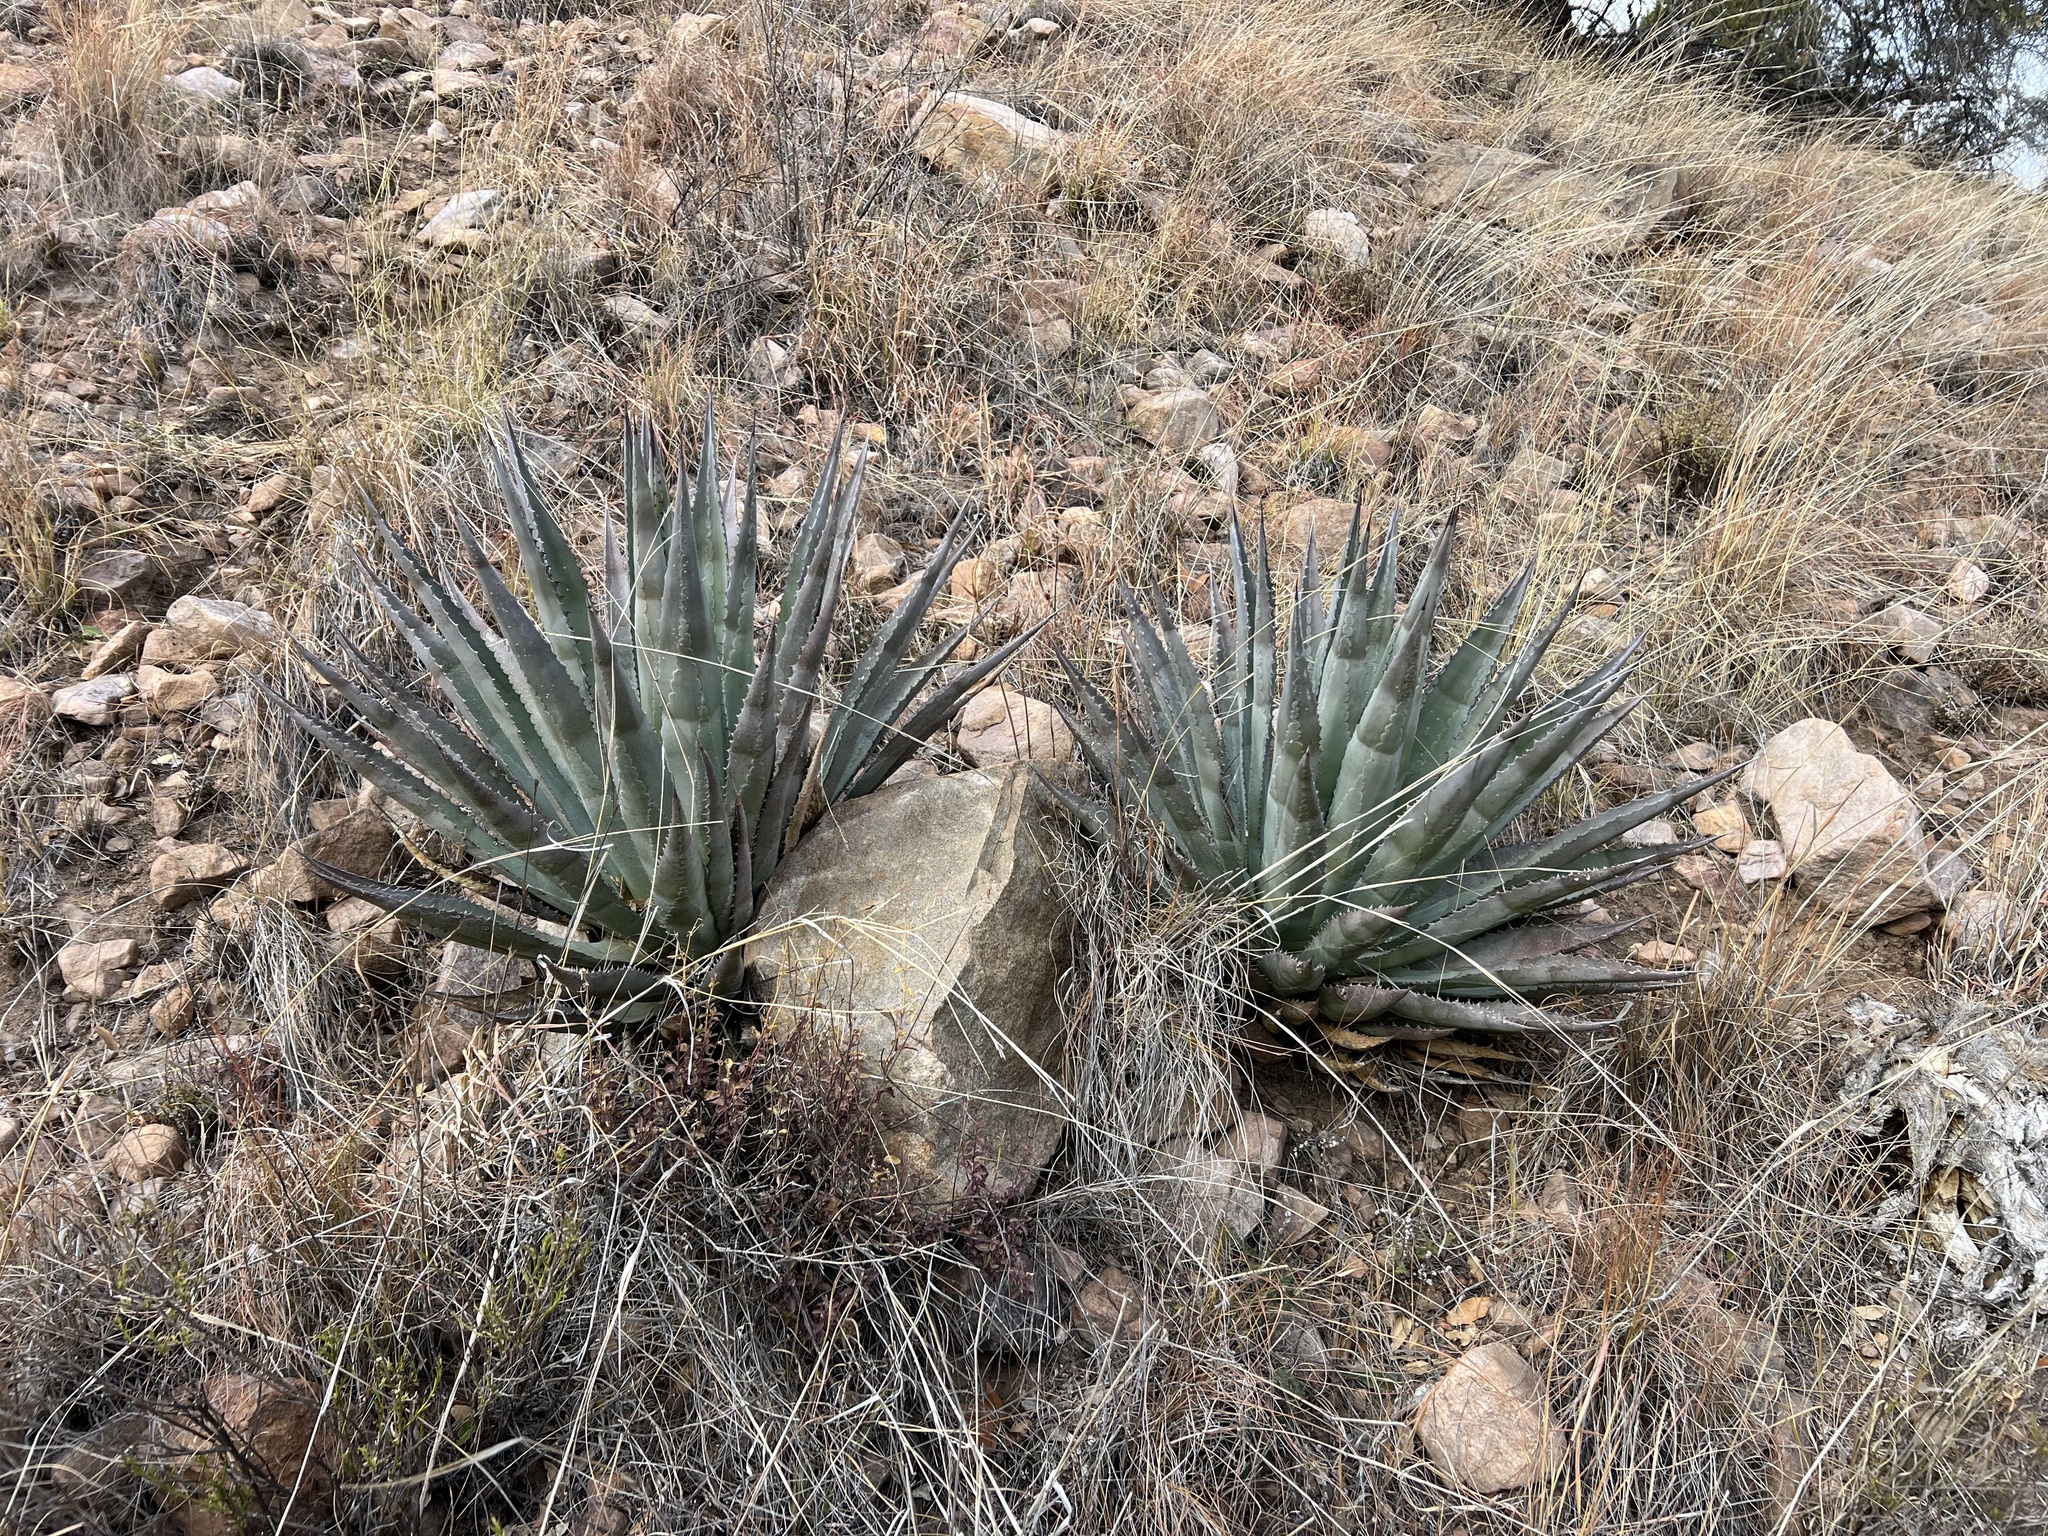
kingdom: Plantae
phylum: Tracheophyta
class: Liliopsida
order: Asparagales
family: Asparagaceae
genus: Agave
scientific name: Agave palmeri
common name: Palmer agave
